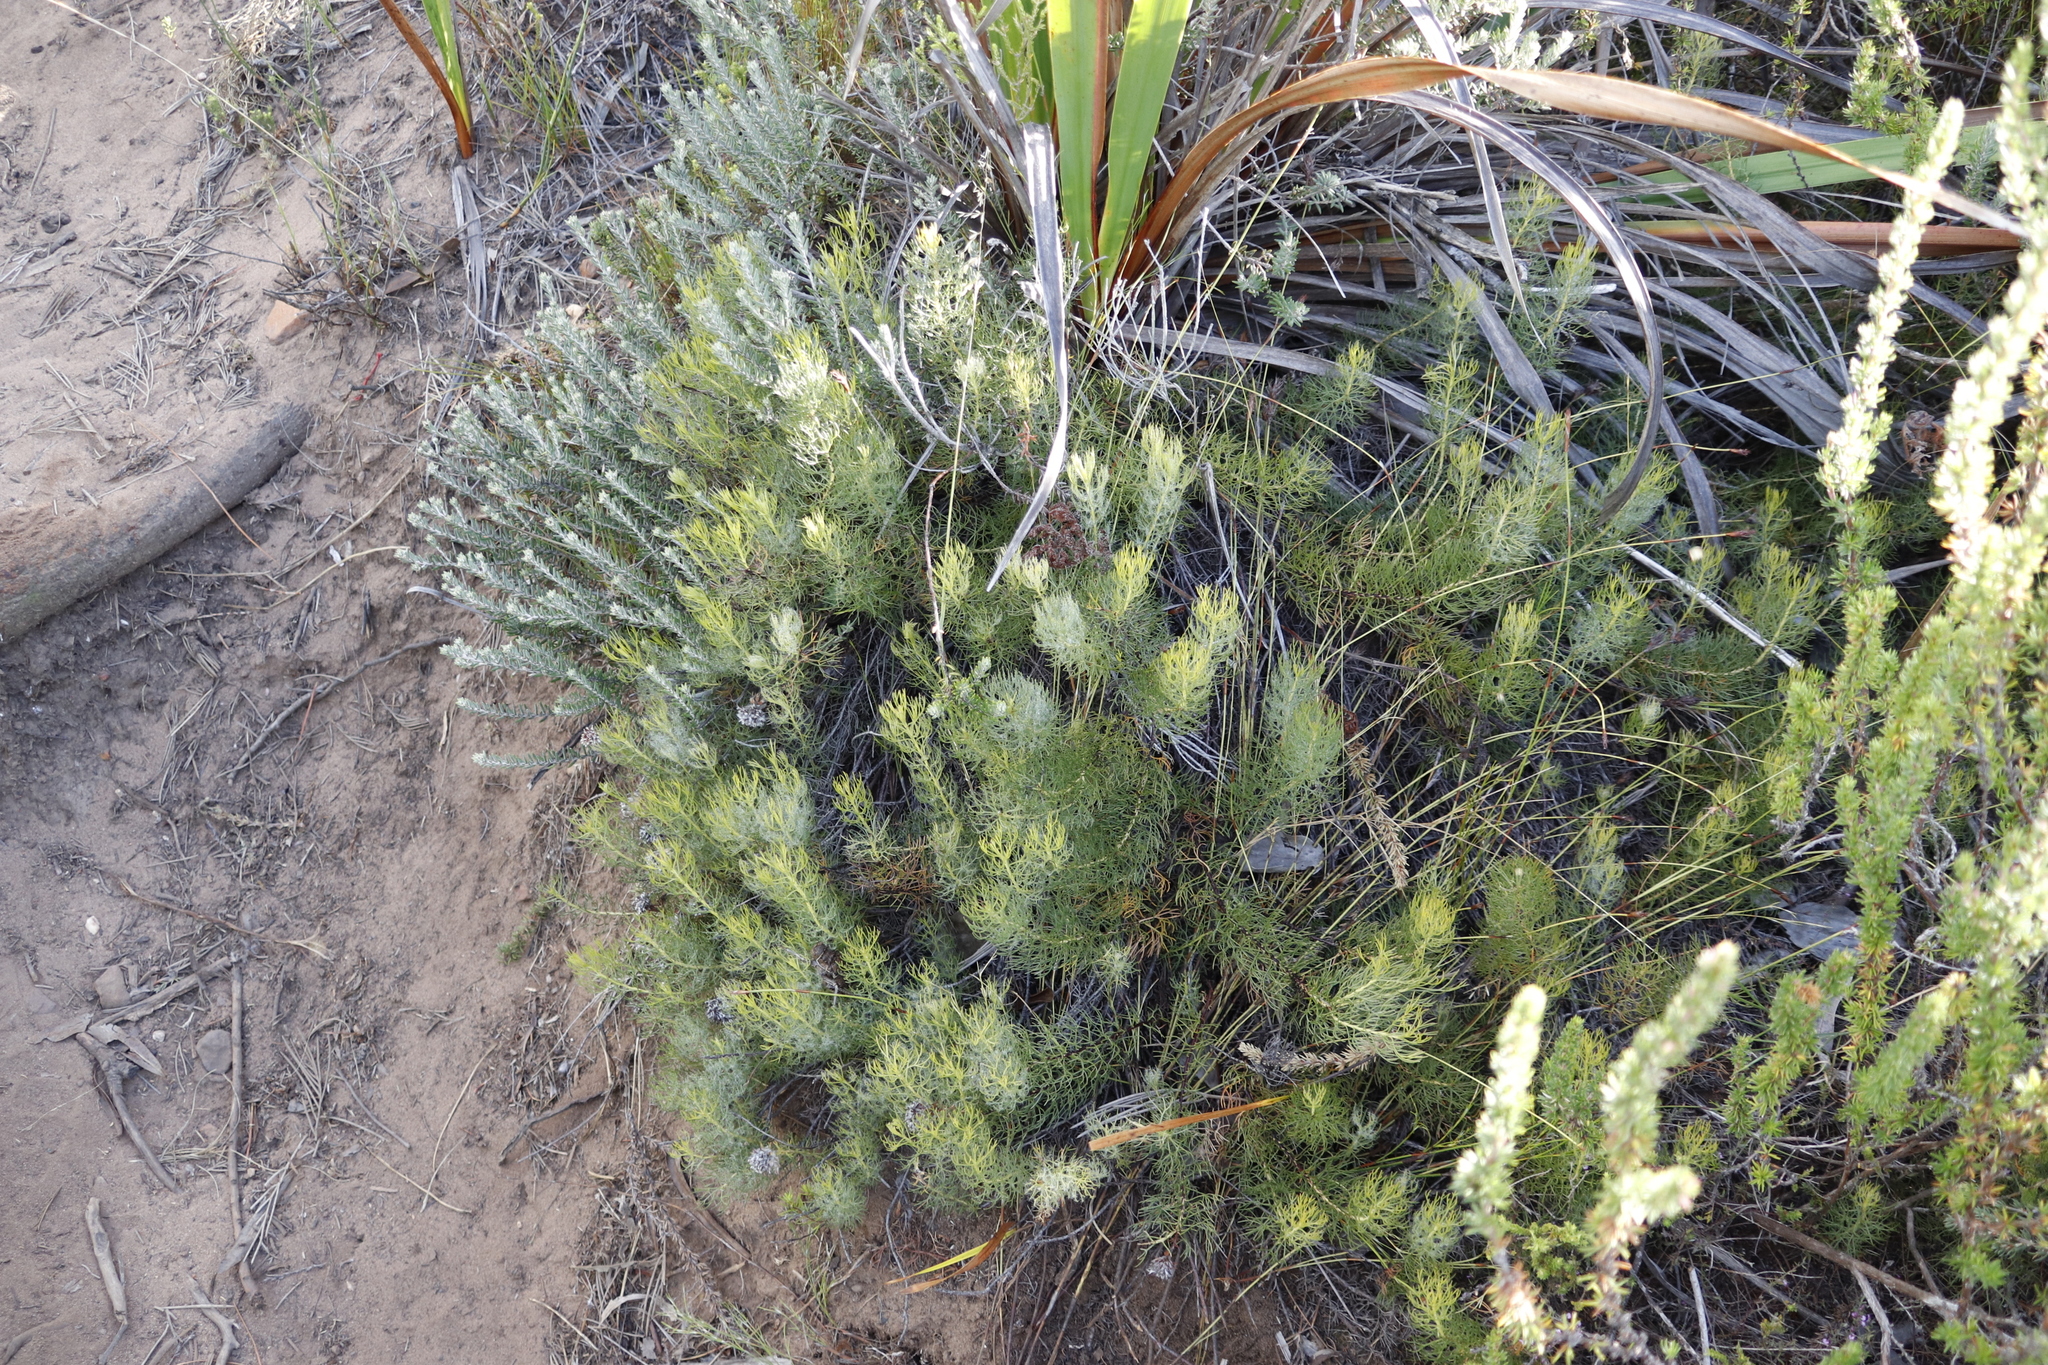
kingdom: Plantae
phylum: Tracheophyta
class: Magnoliopsida
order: Proteales
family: Proteaceae
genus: Serruria
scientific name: Serruria cyanoides
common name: Wynberg spiderhead
